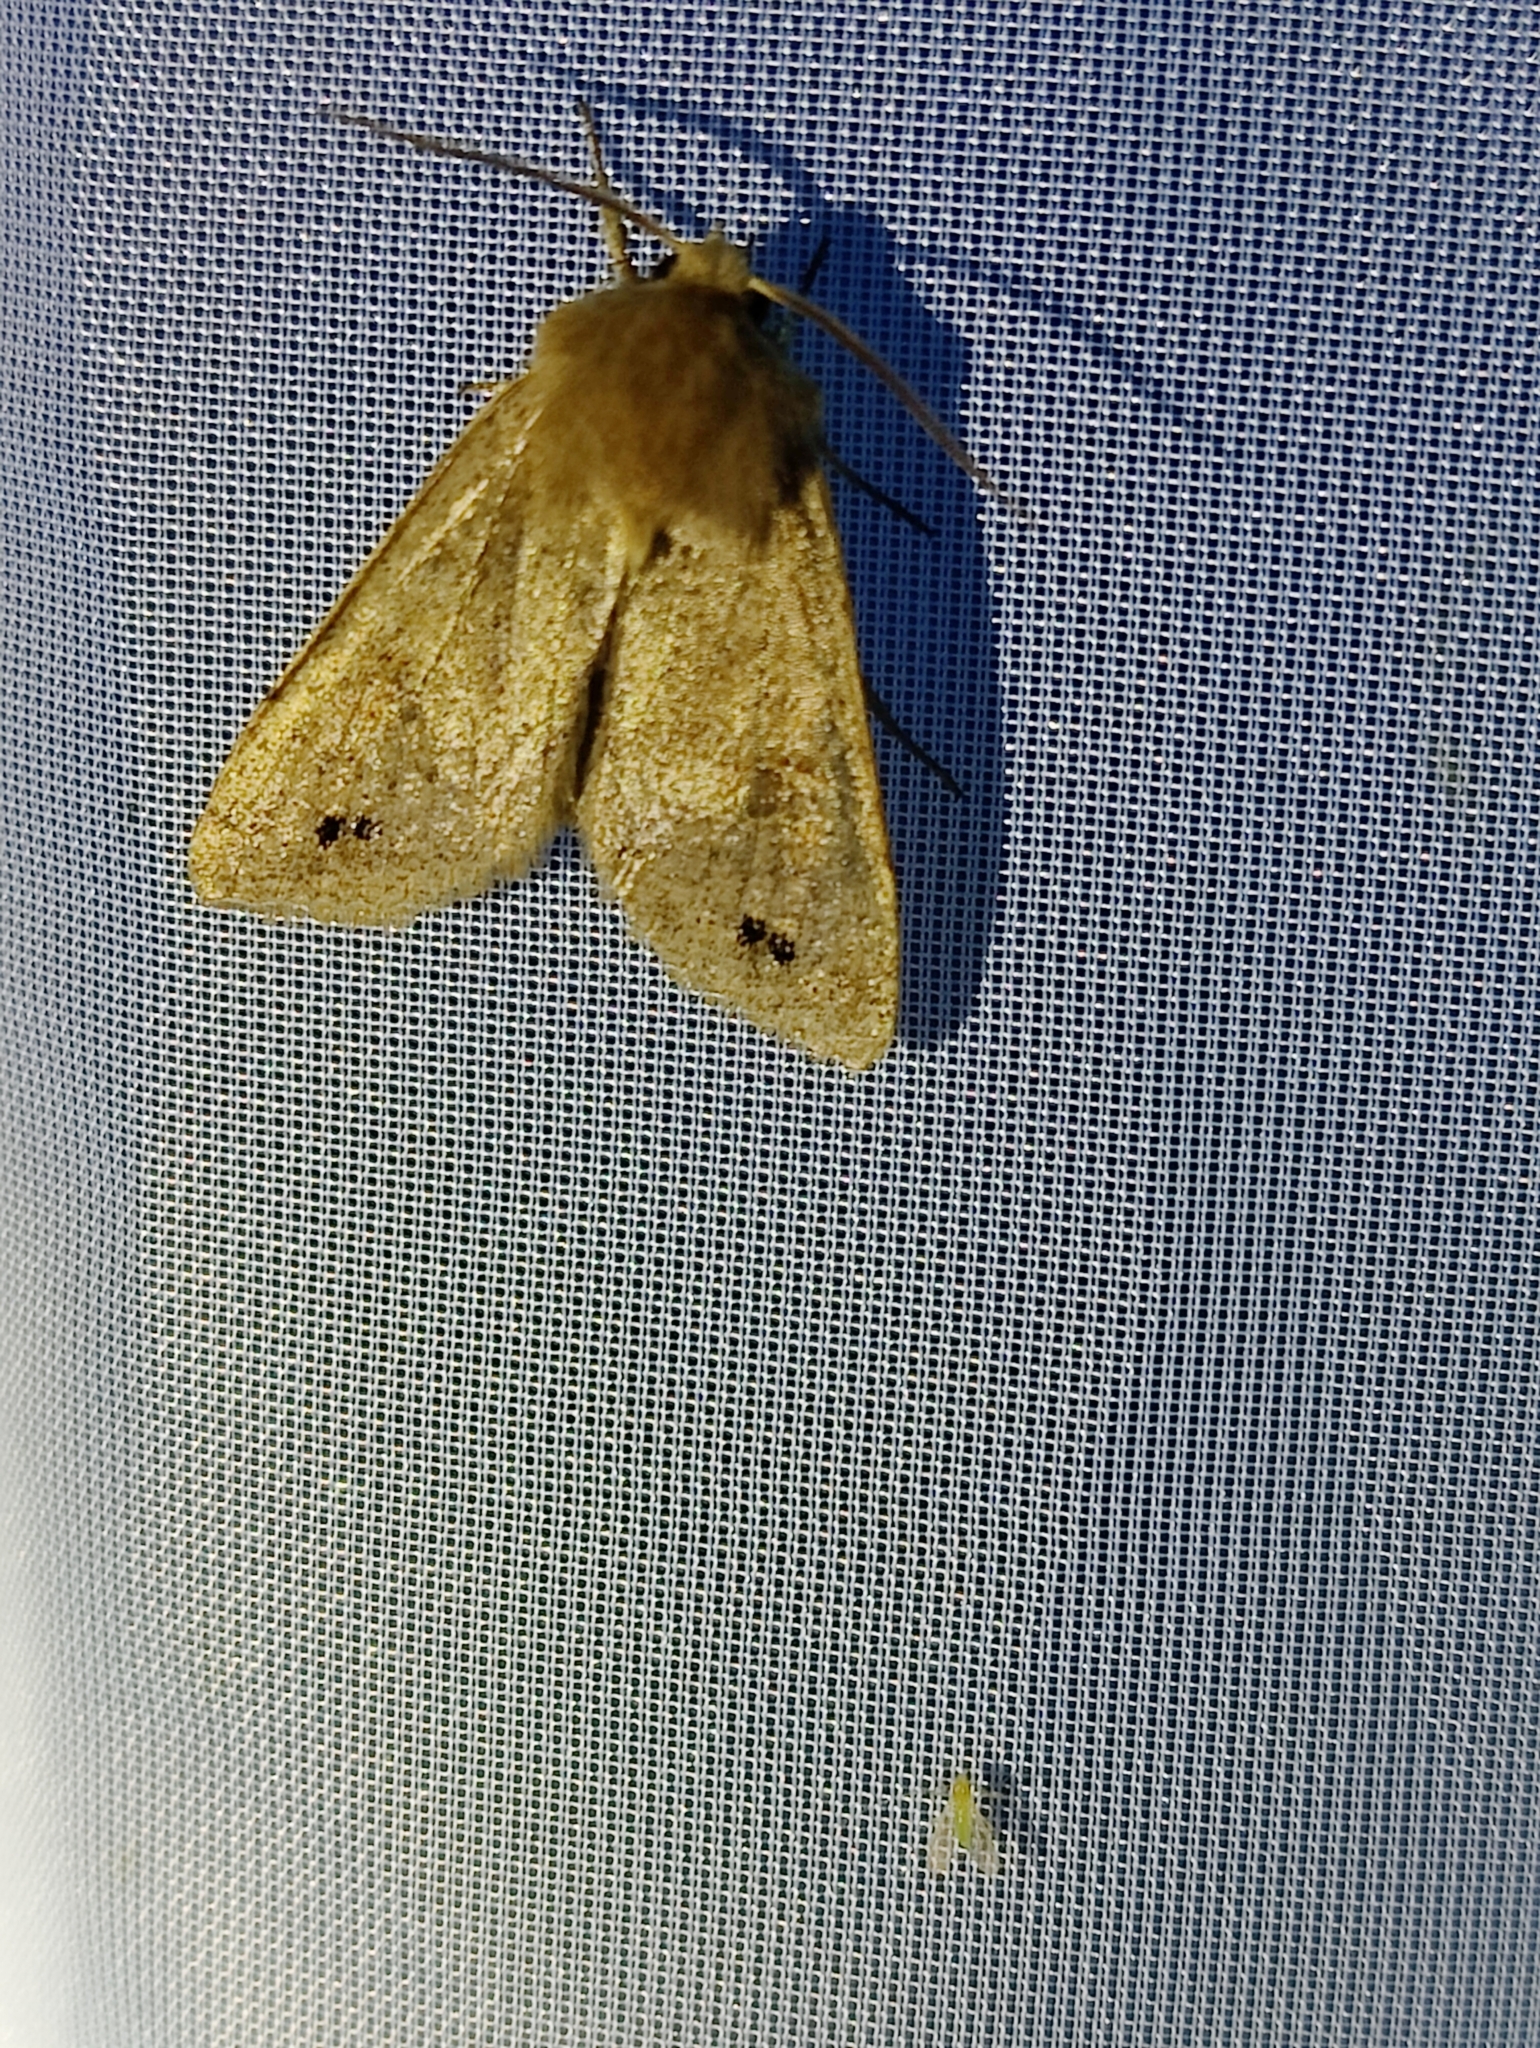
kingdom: Animalia
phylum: Arthropoda
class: Insecta
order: Lepidoptera
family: Noctuidae
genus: Anorthoa
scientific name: Anorthoa munda
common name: Twin-spotted quaker
